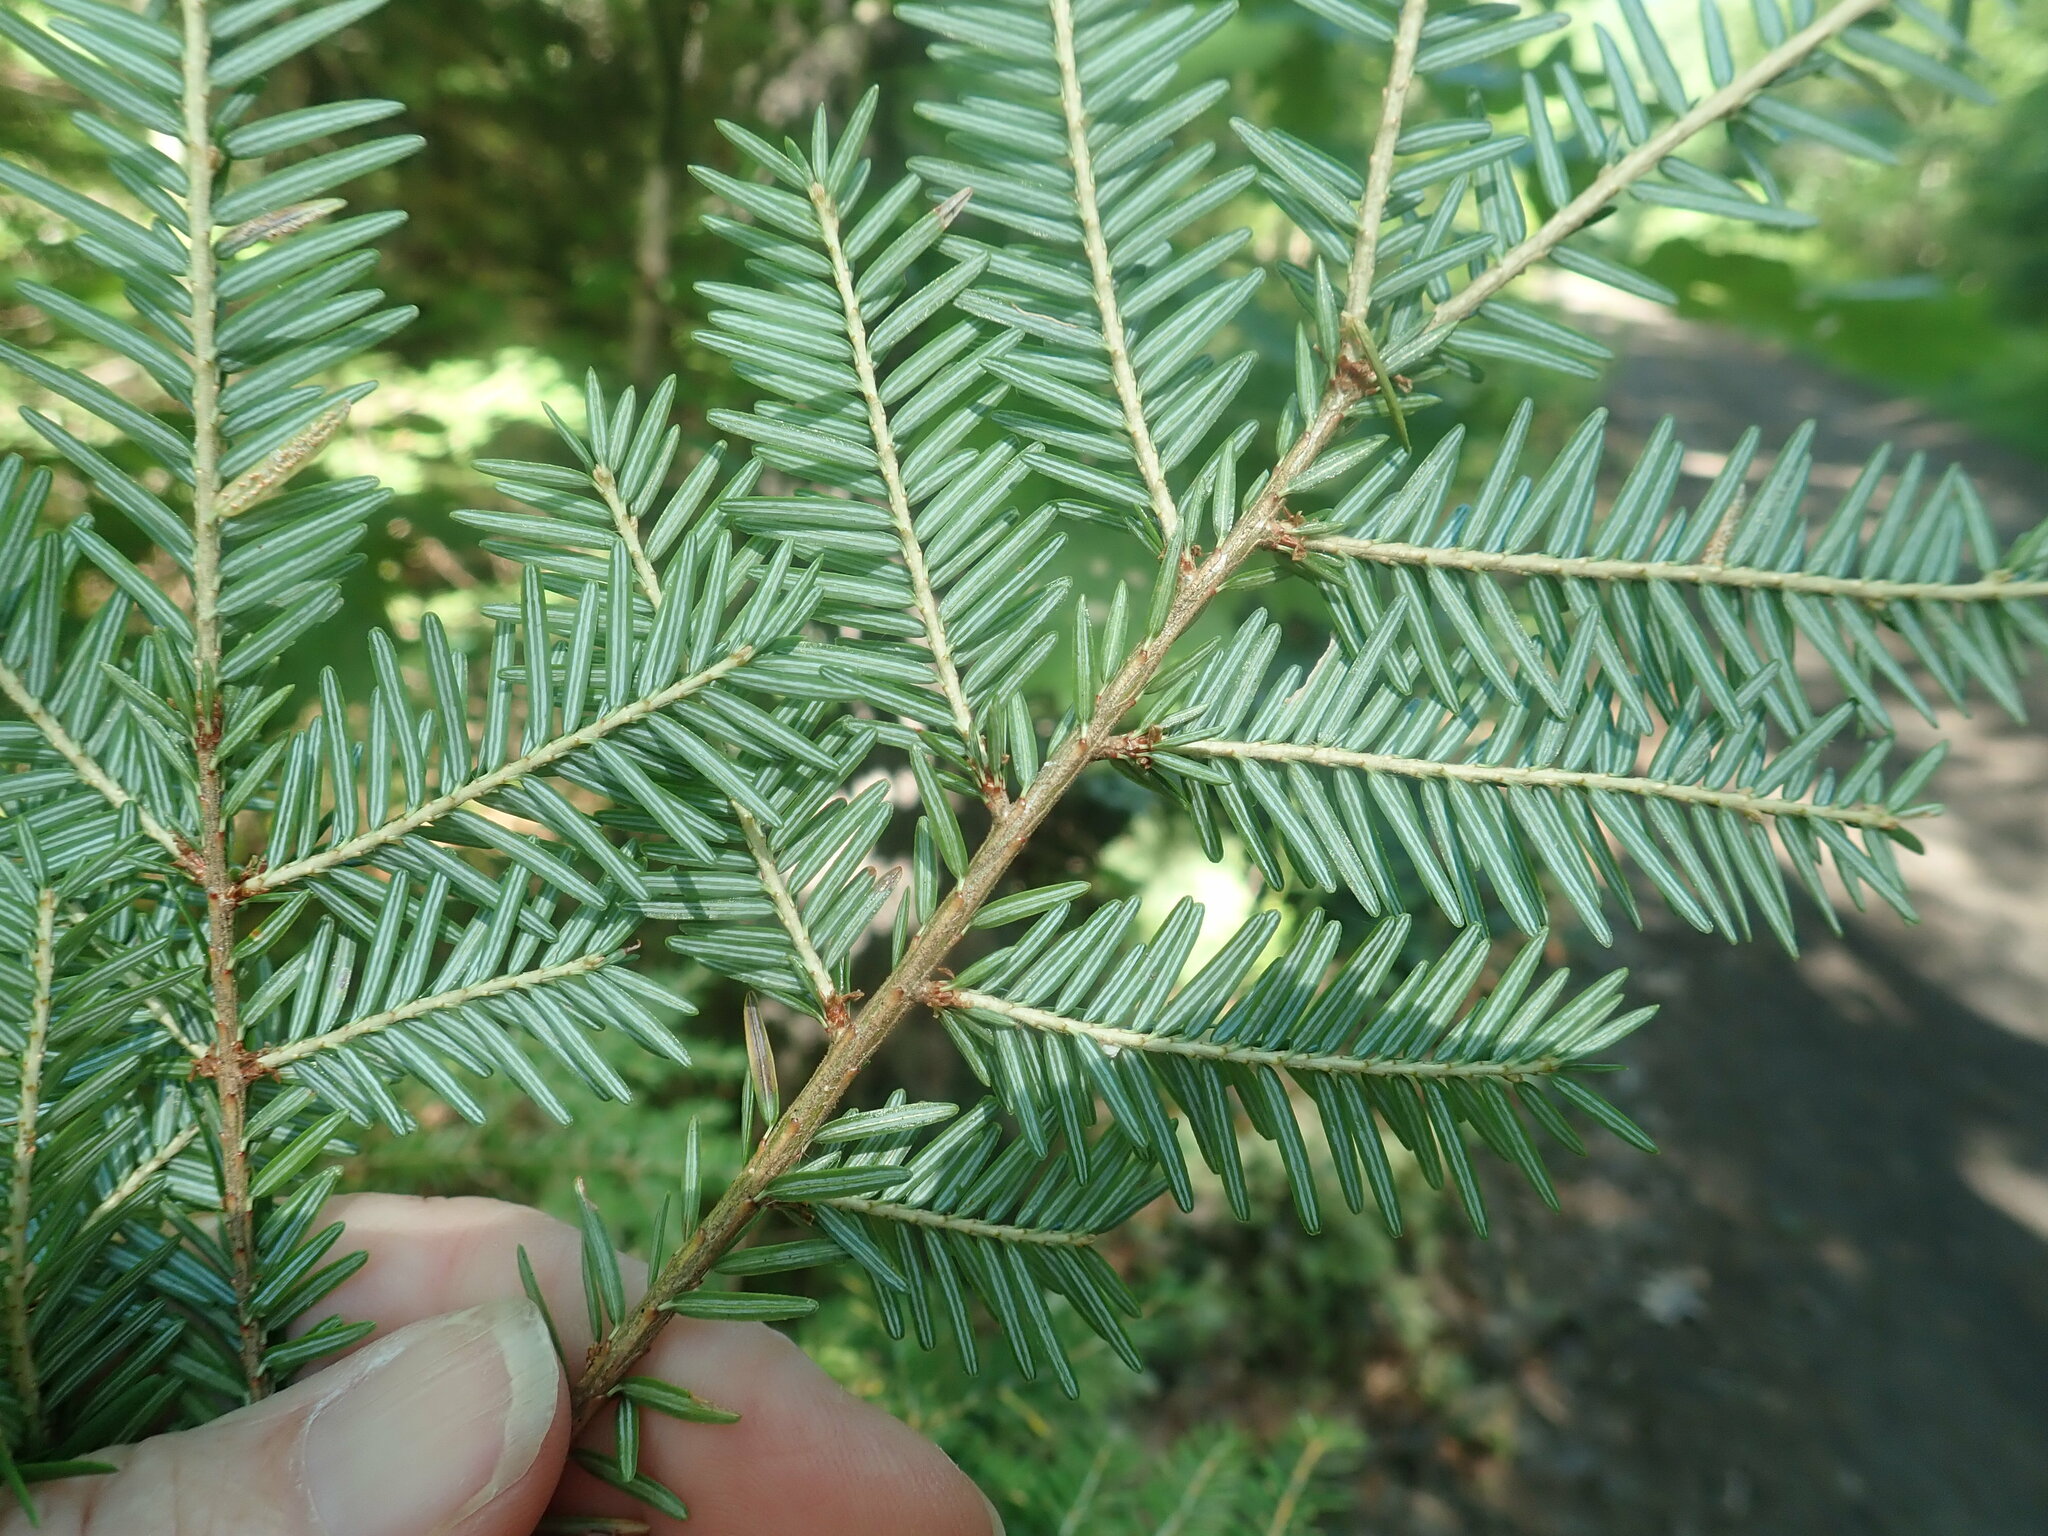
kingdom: Plantae
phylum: Tracheophyta
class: Pinopsida
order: Pinales
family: Pinaceae
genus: Tsuga
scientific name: Tsuga canadensis
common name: Eastern hemlock
